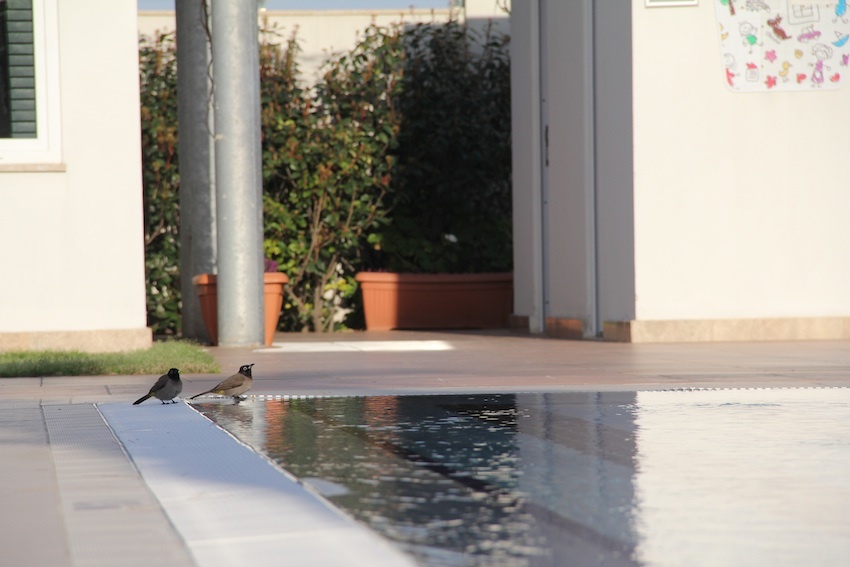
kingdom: Animalia
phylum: Chordata
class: Aves
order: Passeriformes
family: Pycnonotidae
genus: Pycnonotus
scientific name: Pycnonotus xanthopygos
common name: White-spectacled bulbul
